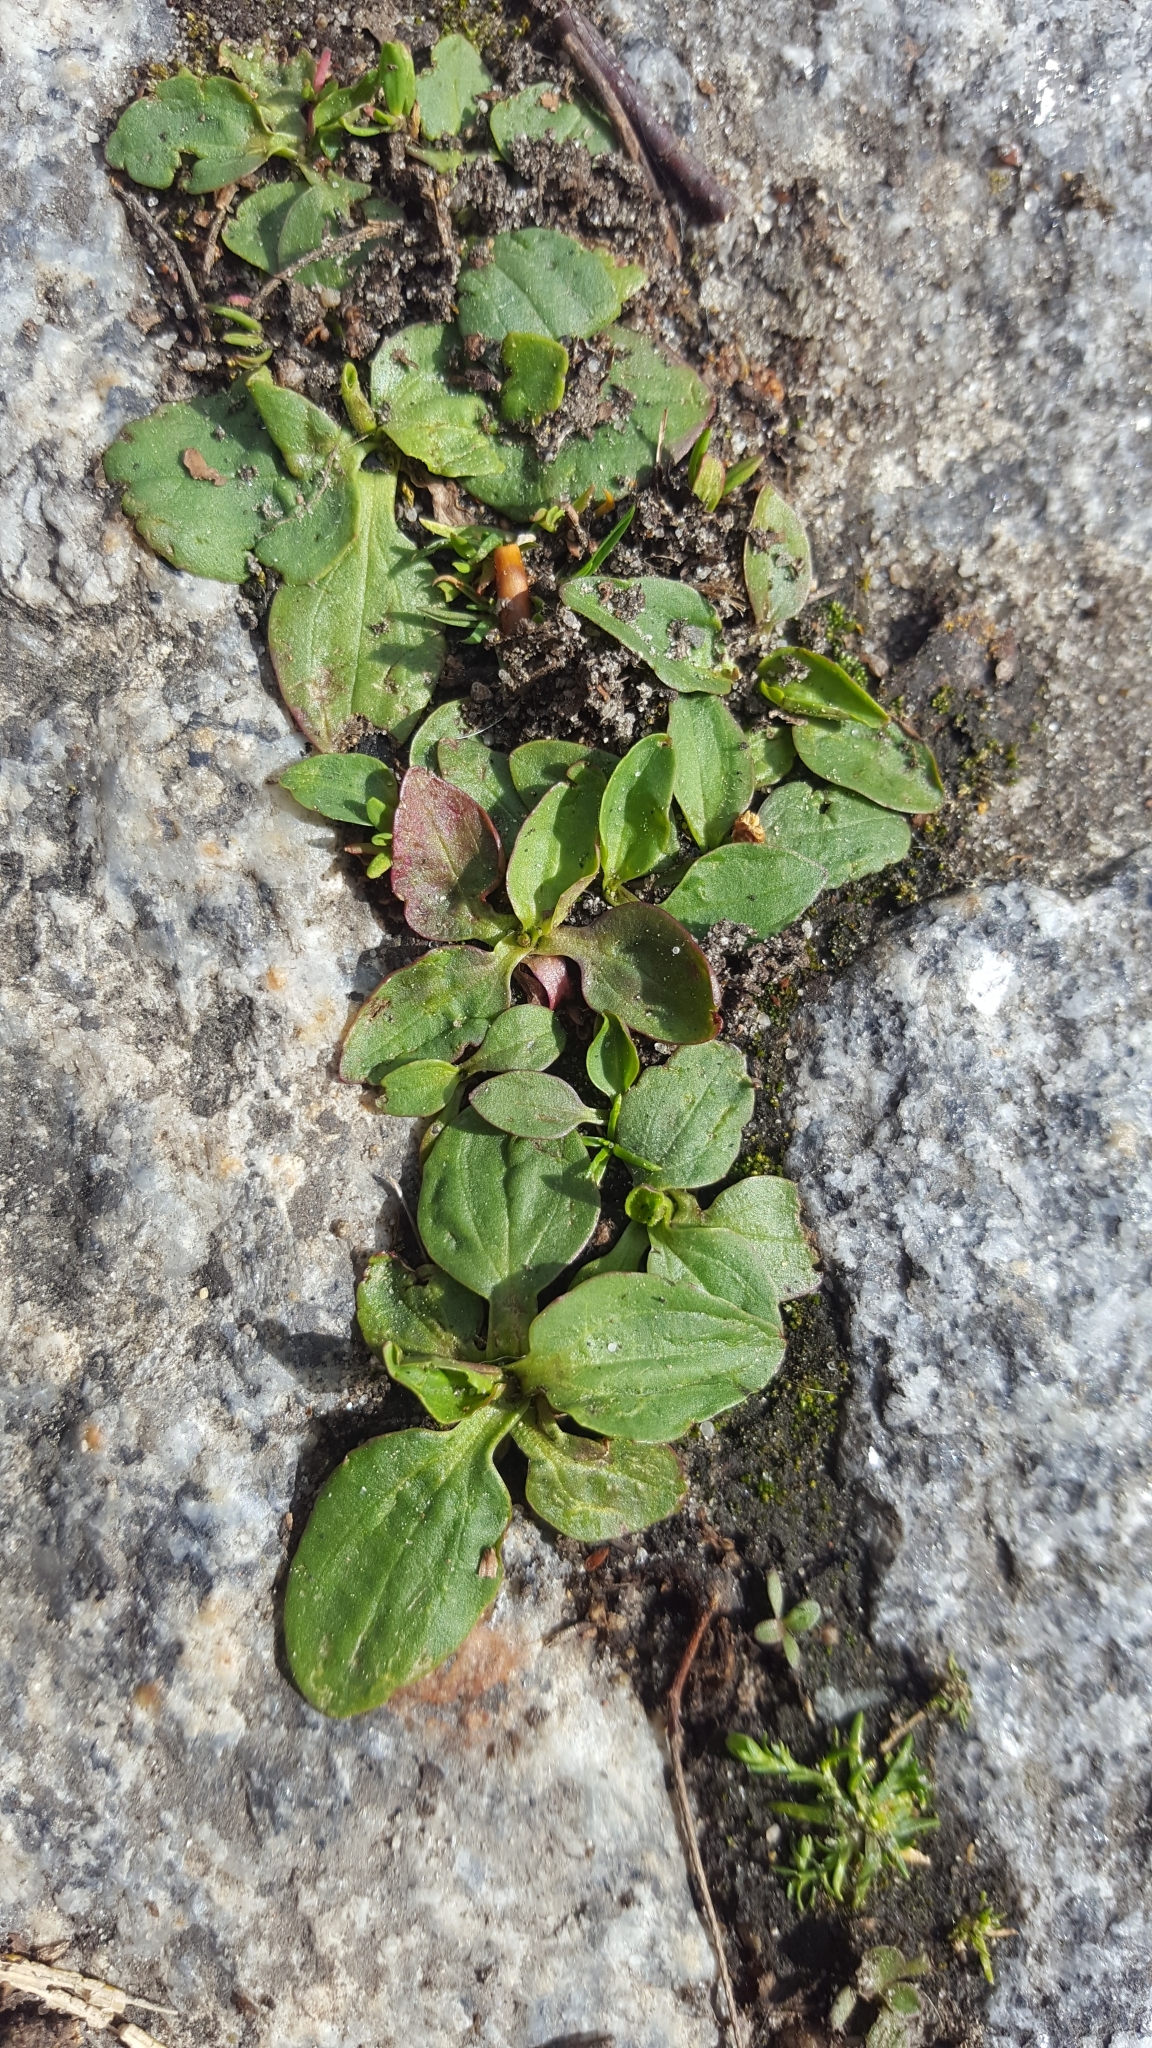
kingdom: Plantae
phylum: Tracheophyta
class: Magnoliopsida
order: Lamiales
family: Plantaginaceae
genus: Plantago
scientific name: Plantago major
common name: Common plantain
